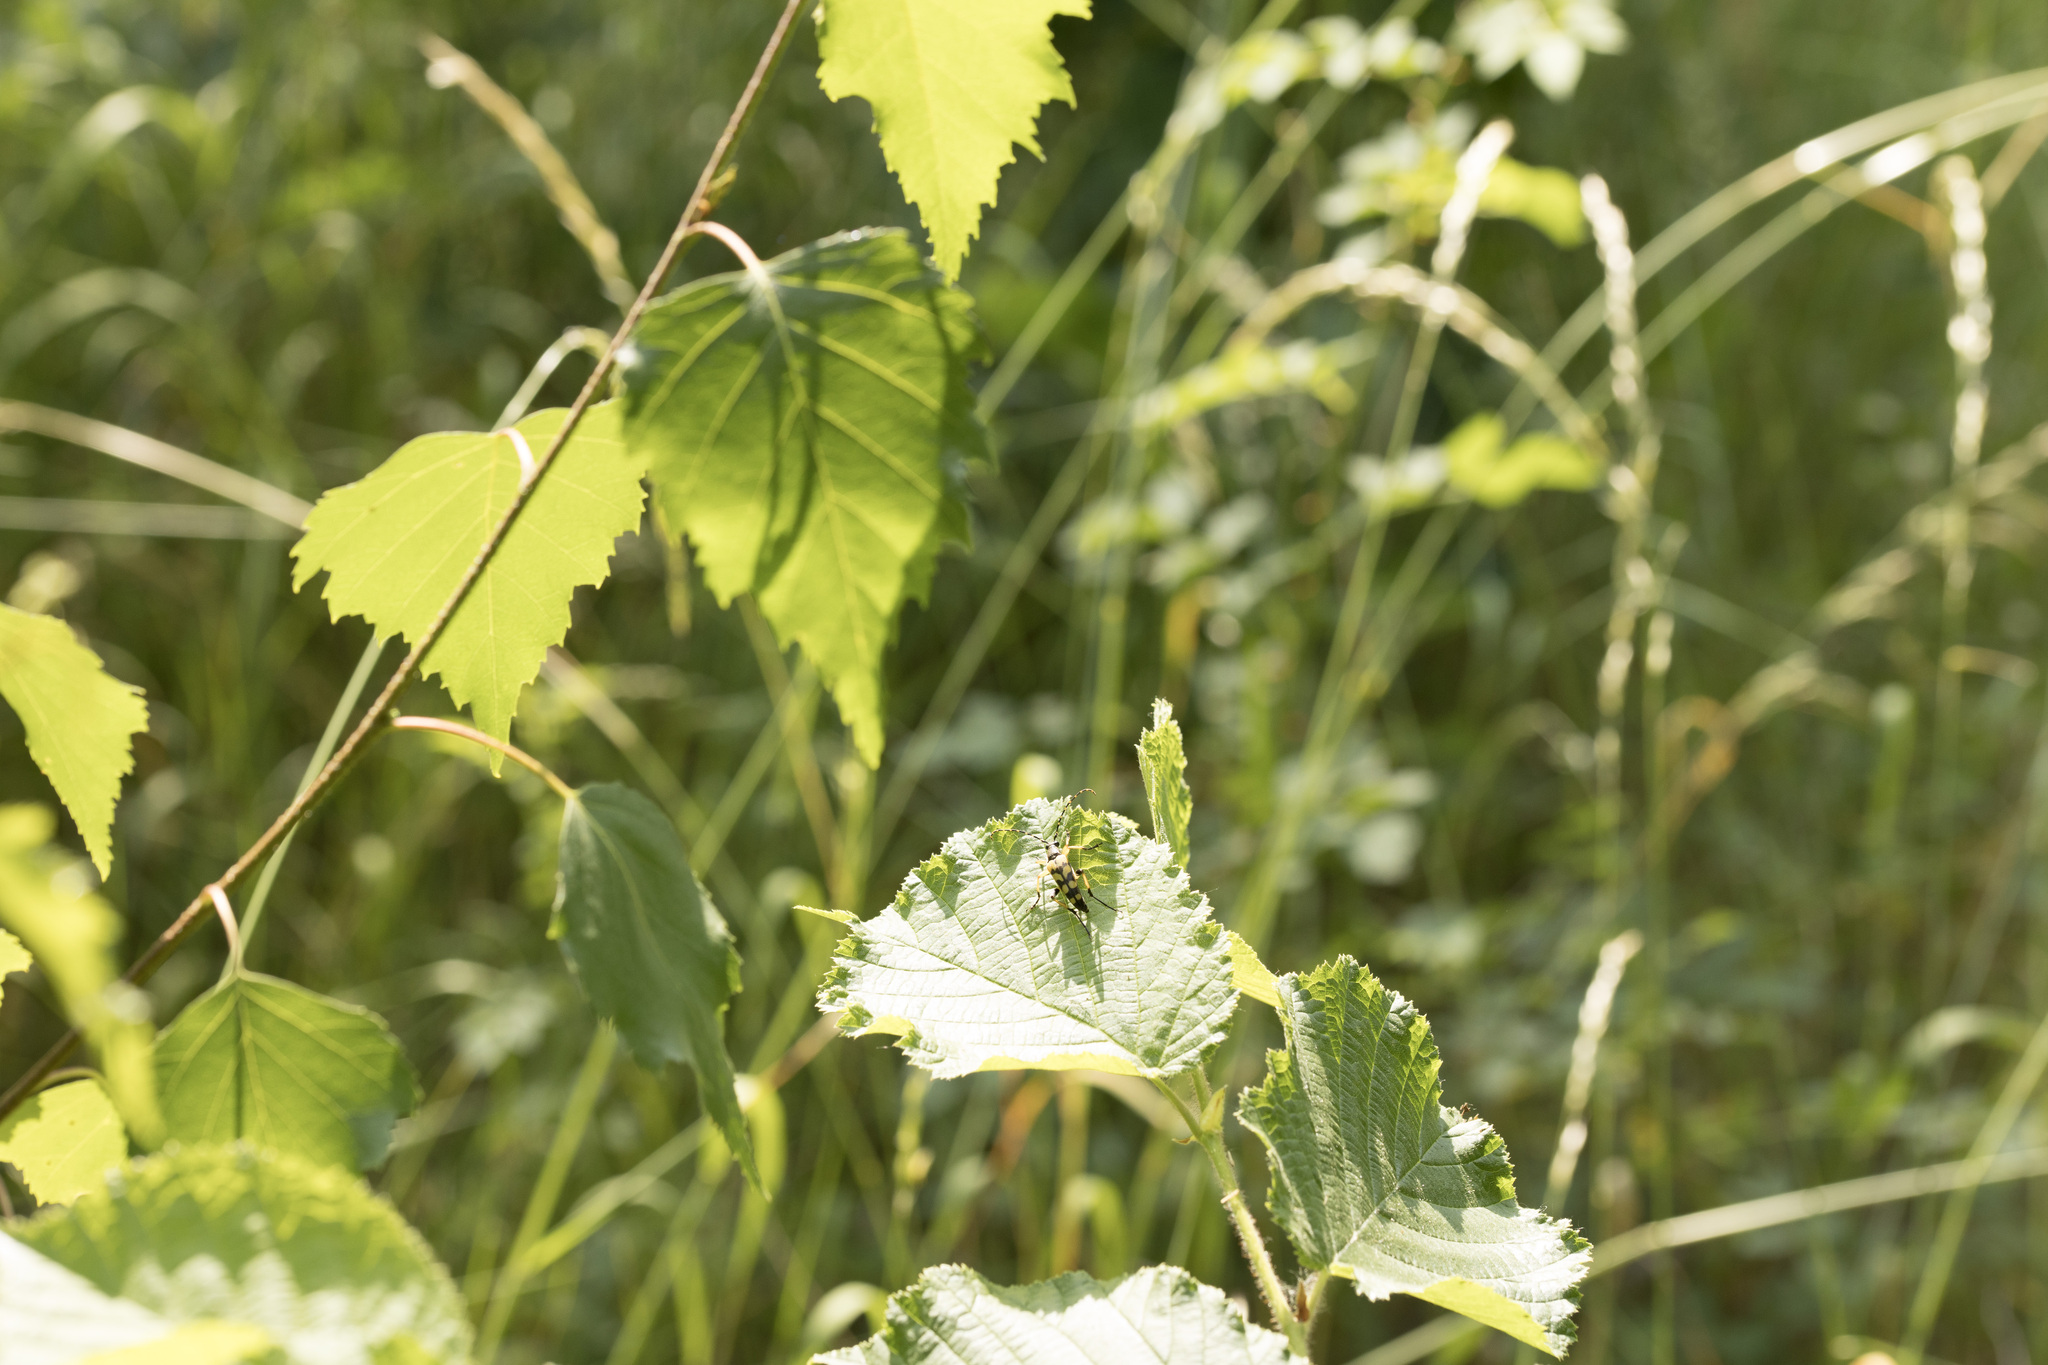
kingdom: Animalia
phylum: Arthropoda
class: Insecta
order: Coleoptera
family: Cerambycidae
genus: Rutpela
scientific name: Rutpela maculata
